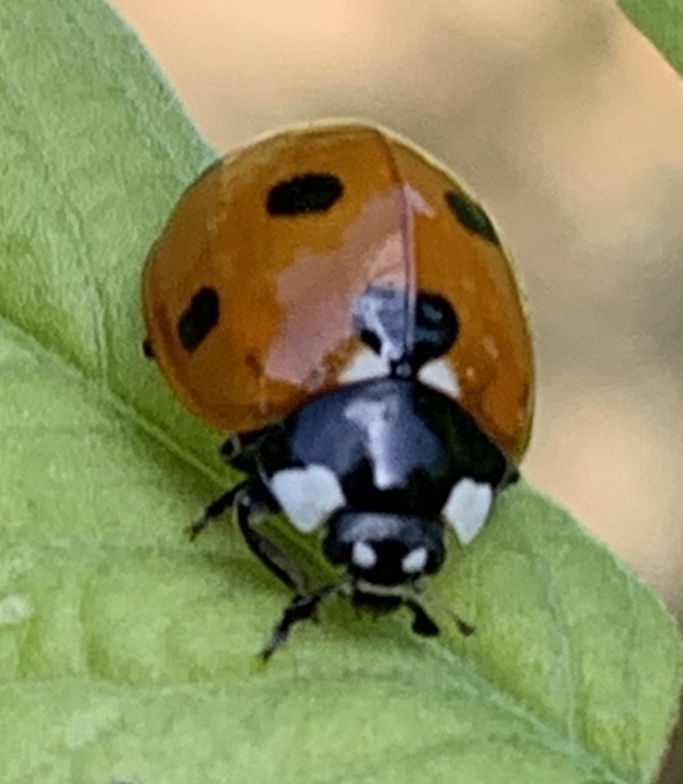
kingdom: Animalia
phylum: Arthropoda
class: Insecta
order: Coleoptera
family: Coccinellidae
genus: Coccinella
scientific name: Coccinella septempunctata
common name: Sevenspotted lady beetle
